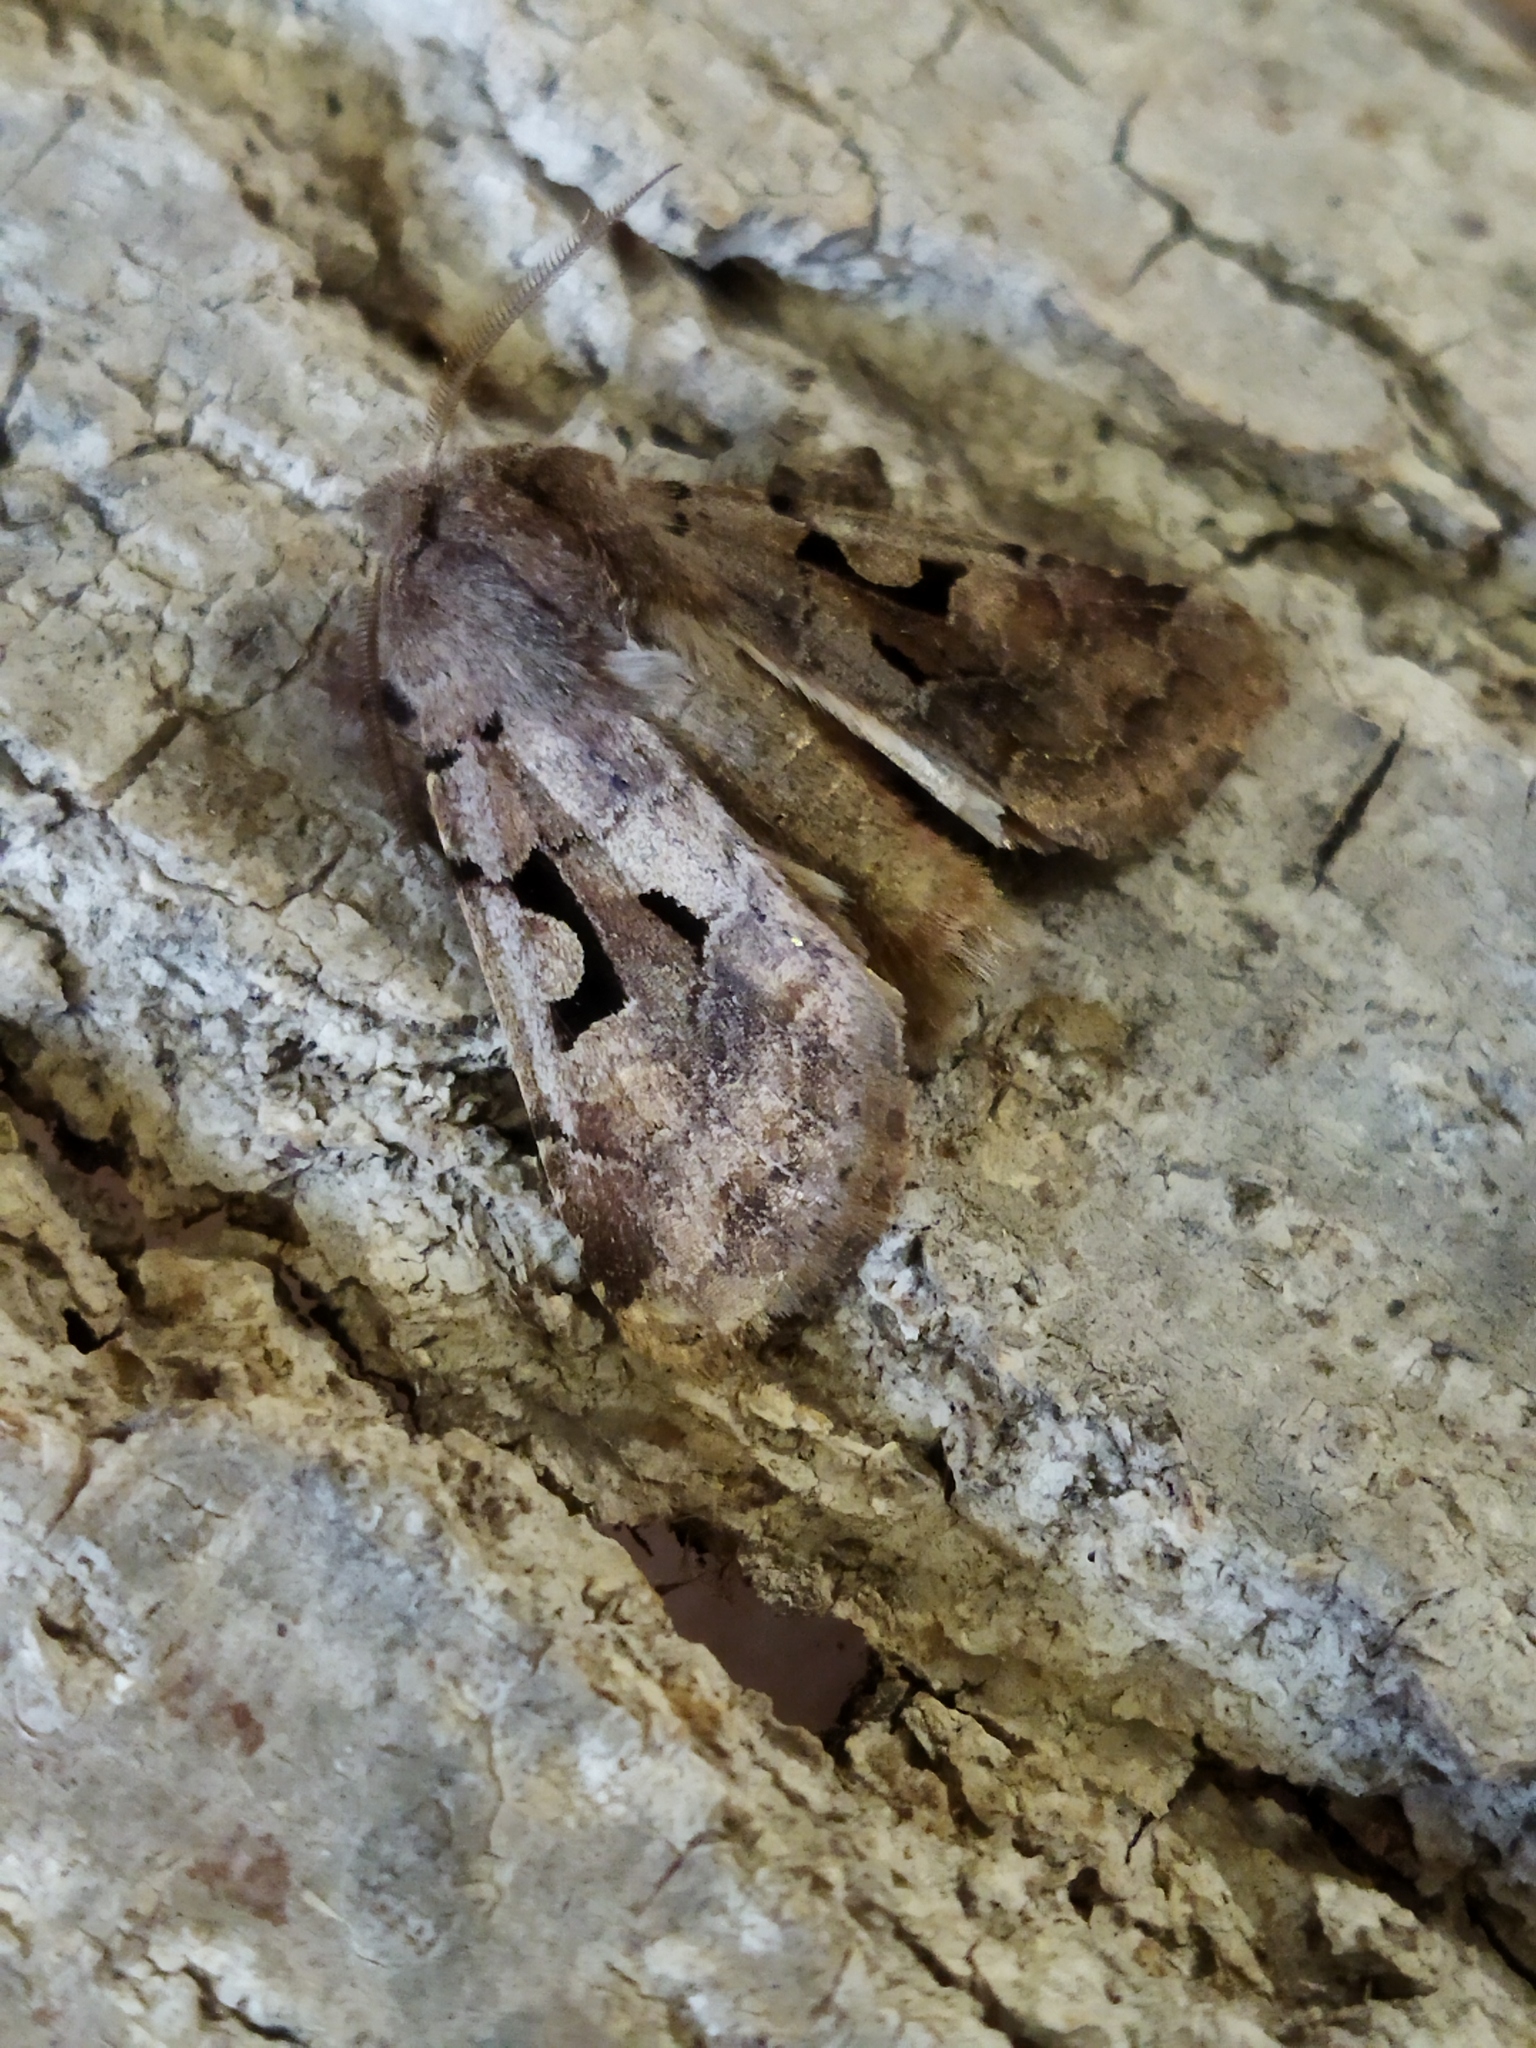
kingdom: Animalia
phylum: Arthropoda
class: Insecta
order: Lepidoptera
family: Noctuidae
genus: Orthosia
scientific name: Orthosia gothica
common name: Hebrew character
